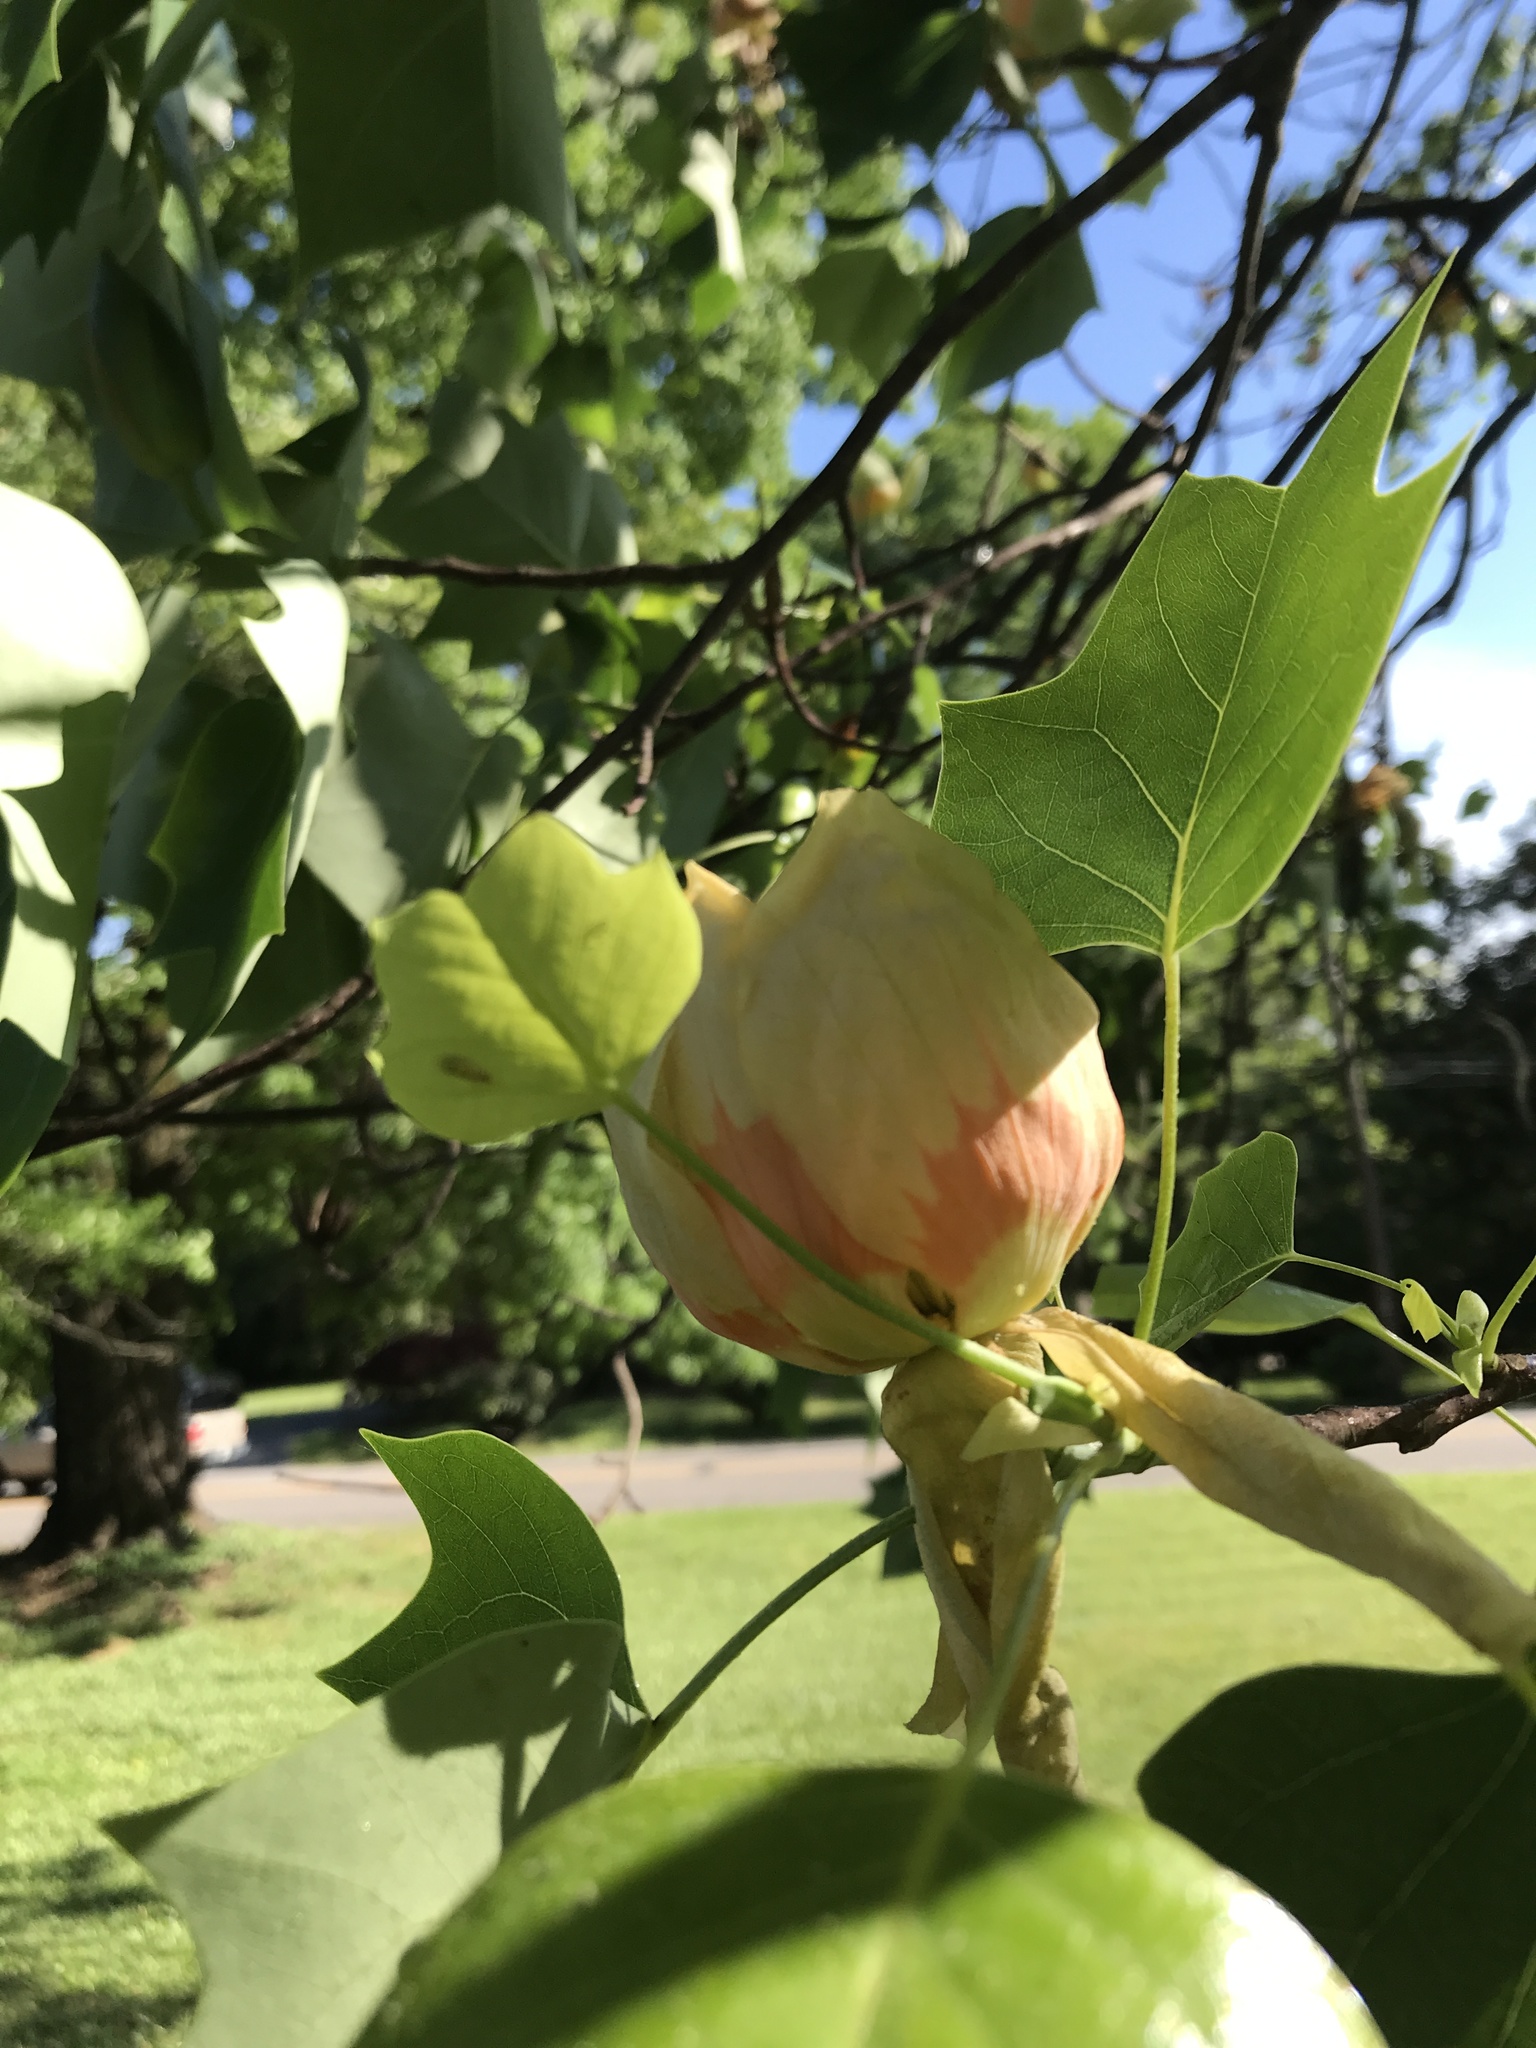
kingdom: Plantae
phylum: Tracheophyta
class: Magnoliopsida
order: Magnoliales
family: Magnoliaceae
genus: Liriodendron
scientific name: Liriodendron tulipifera
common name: Tulip tree
